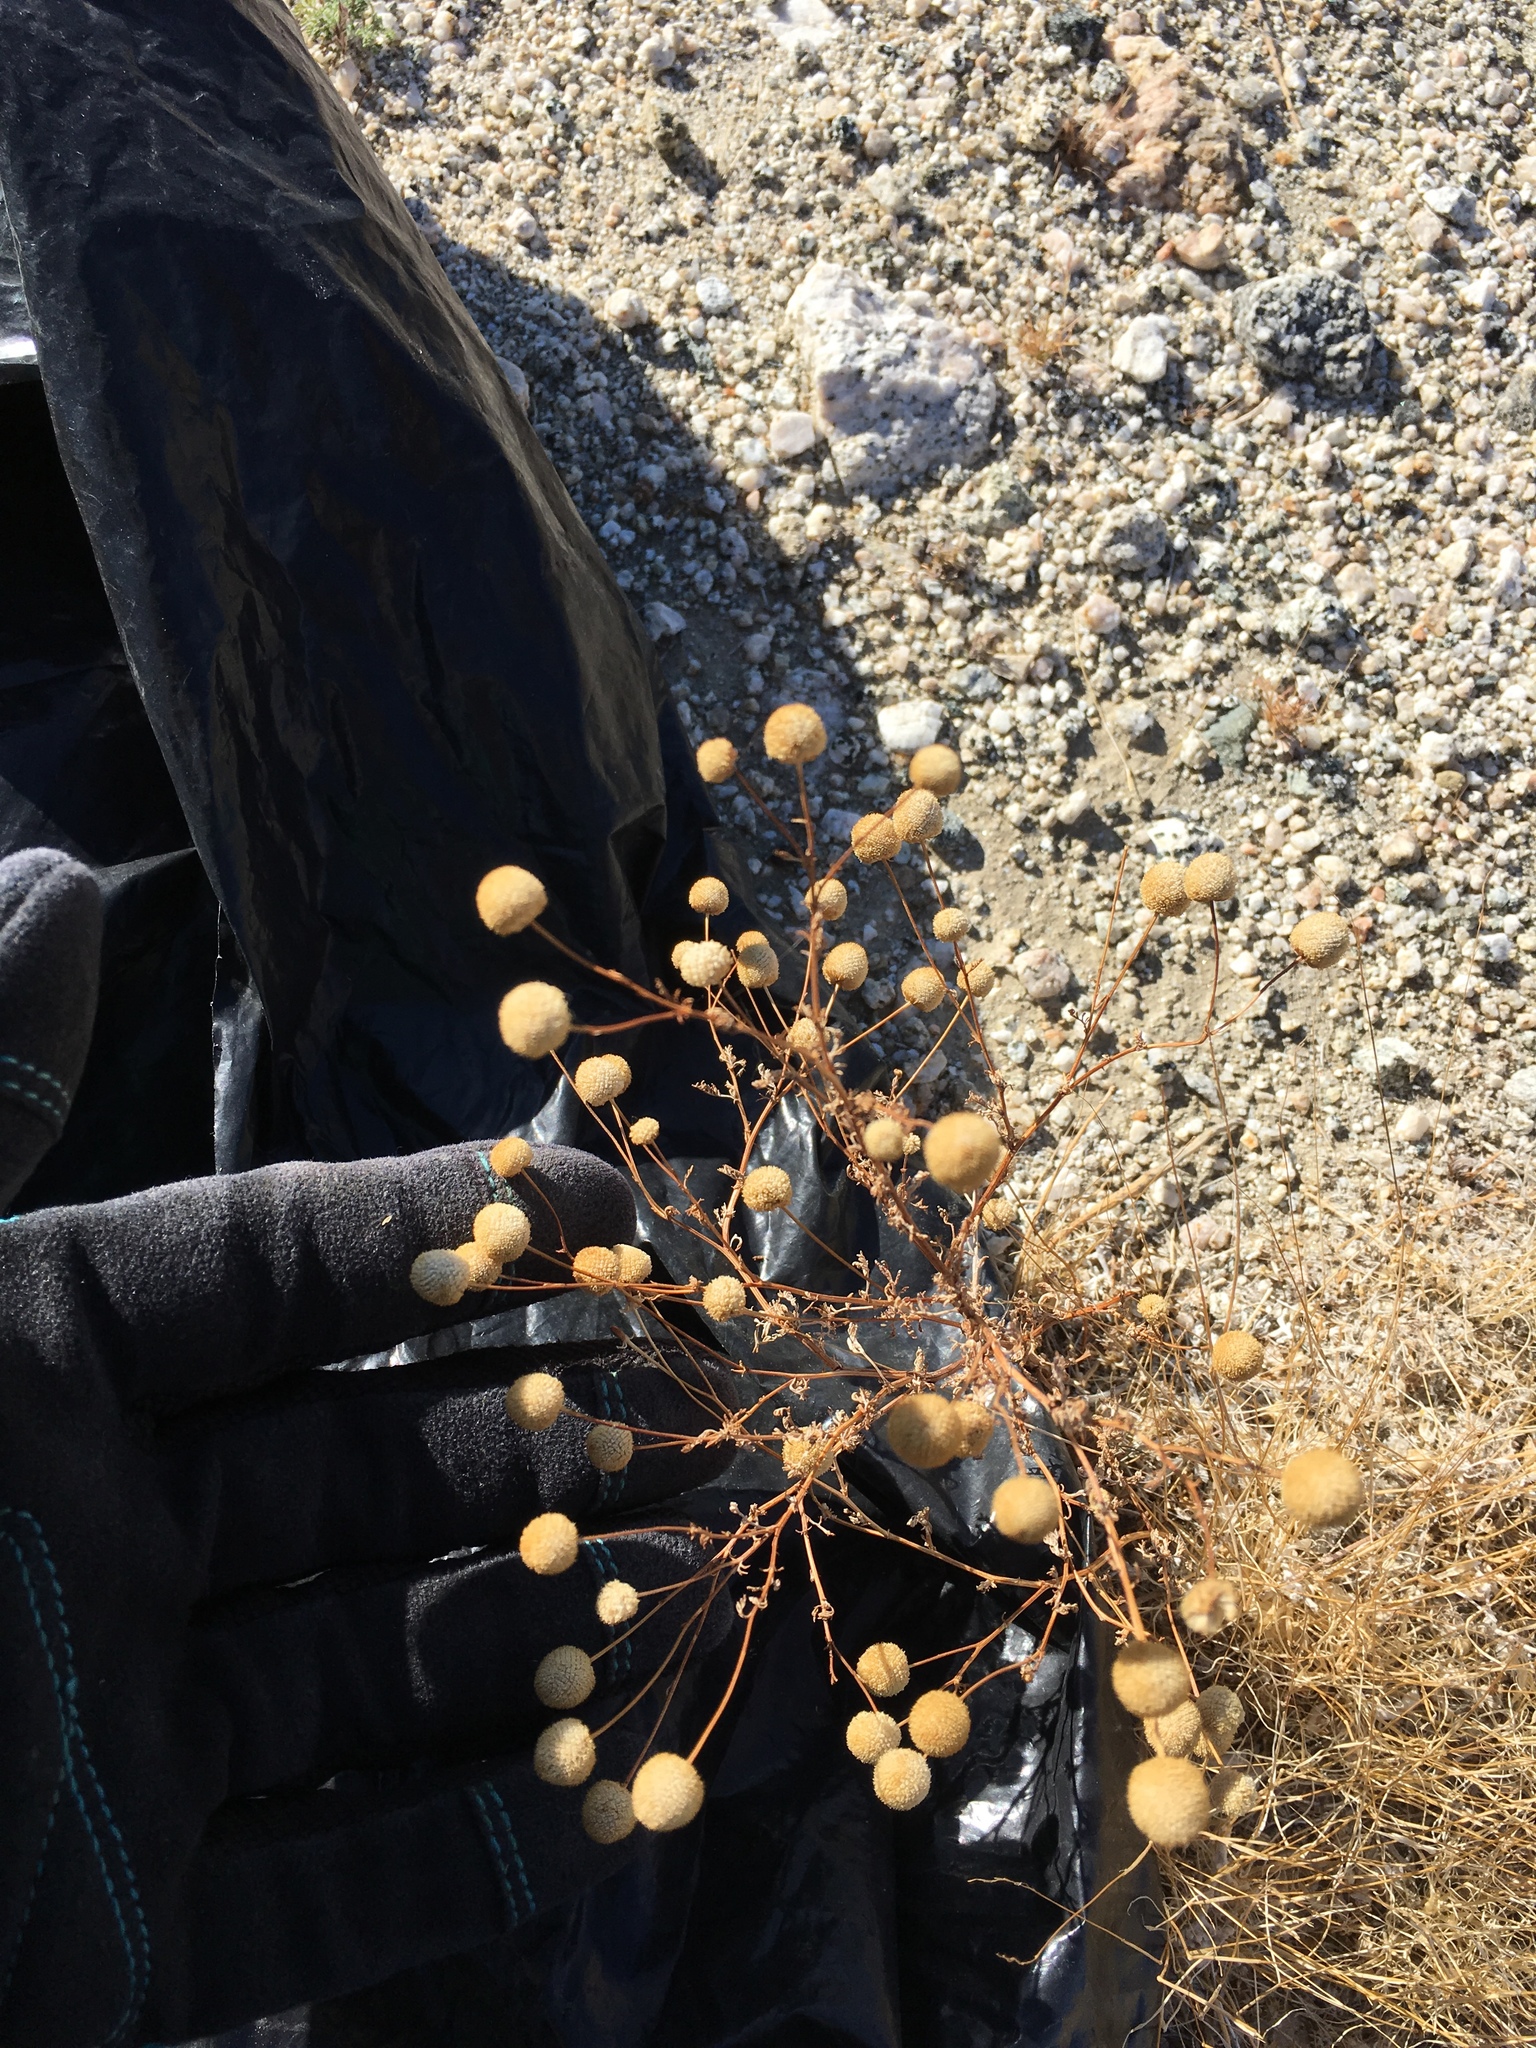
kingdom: Plantae
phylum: Tracheophyta
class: Magnoliopsida
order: Asterales
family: Asteraceae
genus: Oncosiphon
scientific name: Oncosiphon pilulifer
